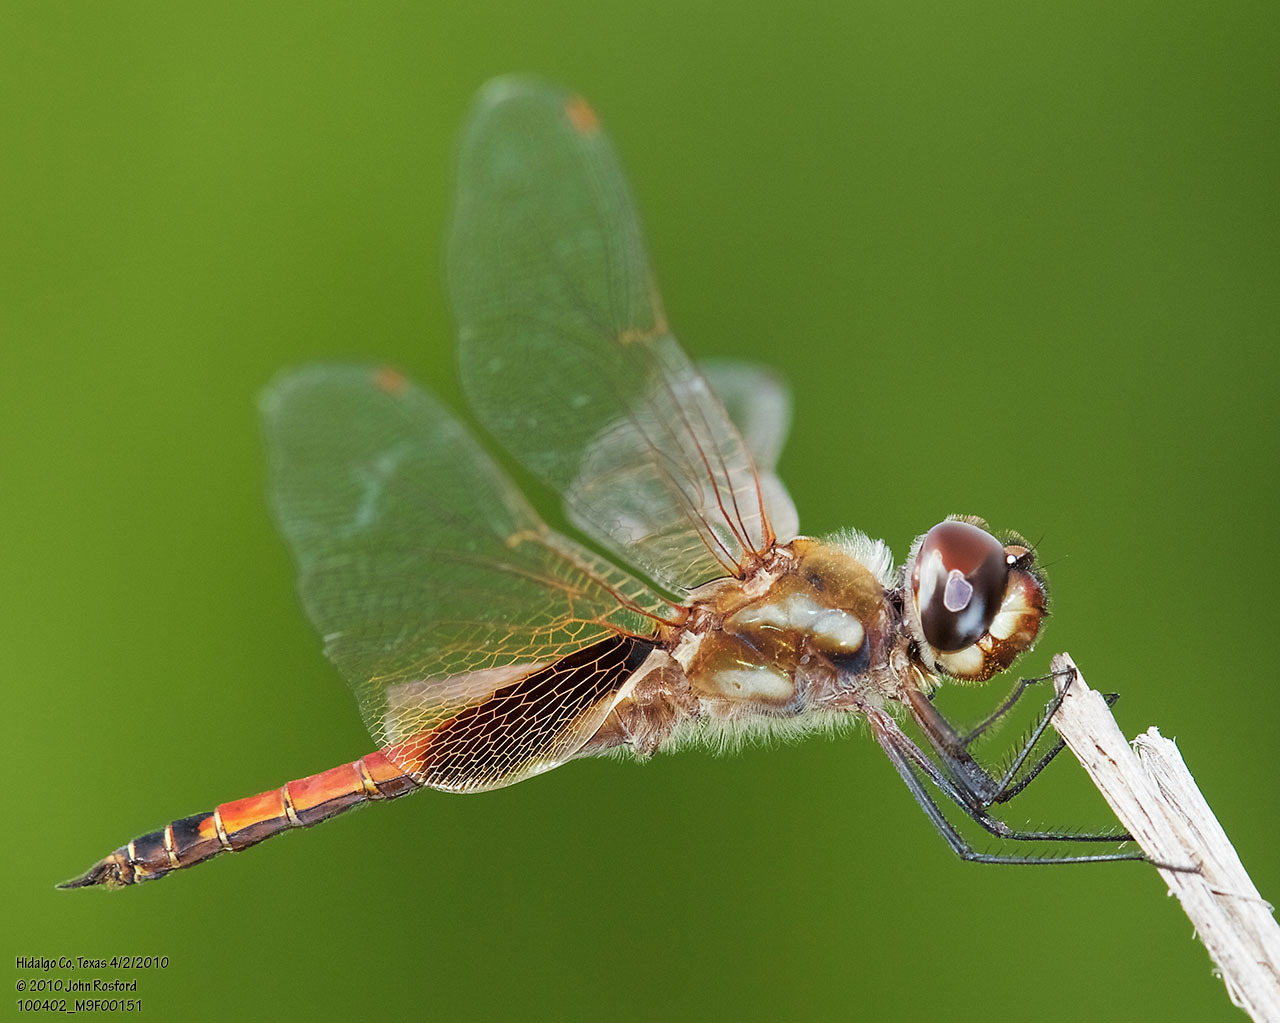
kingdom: Animalia
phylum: Arthropoda
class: Insecta
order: Odonata
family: Libellulidae
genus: Tramea
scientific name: Tramea darwini
